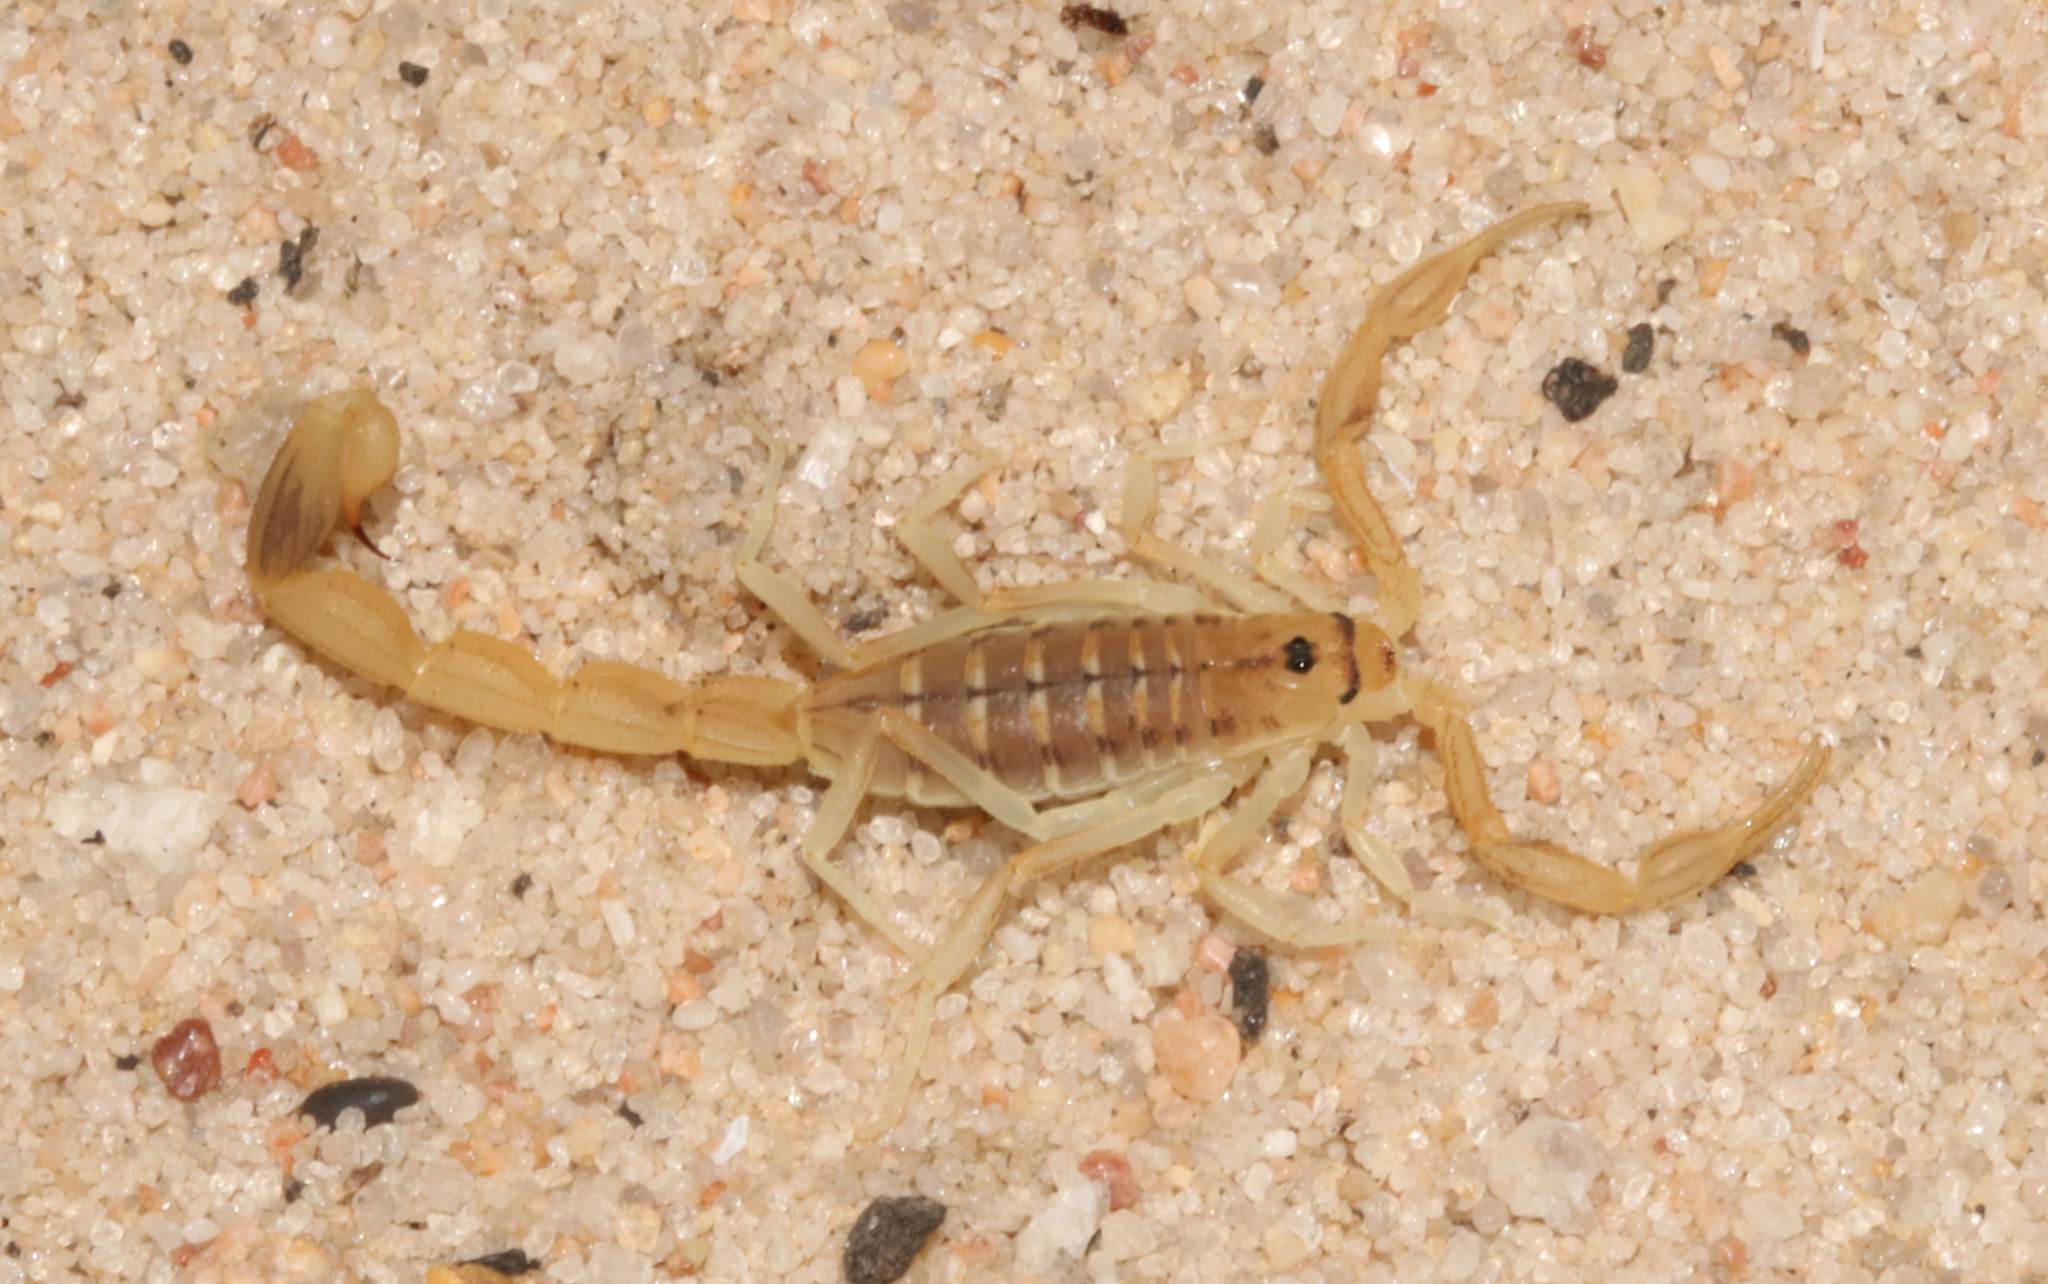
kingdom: Animalia
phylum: Arthropoda
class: Arachnida
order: Scorpiones
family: Buthidae
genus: Uroplectes
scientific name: Uroplectes carinatus
